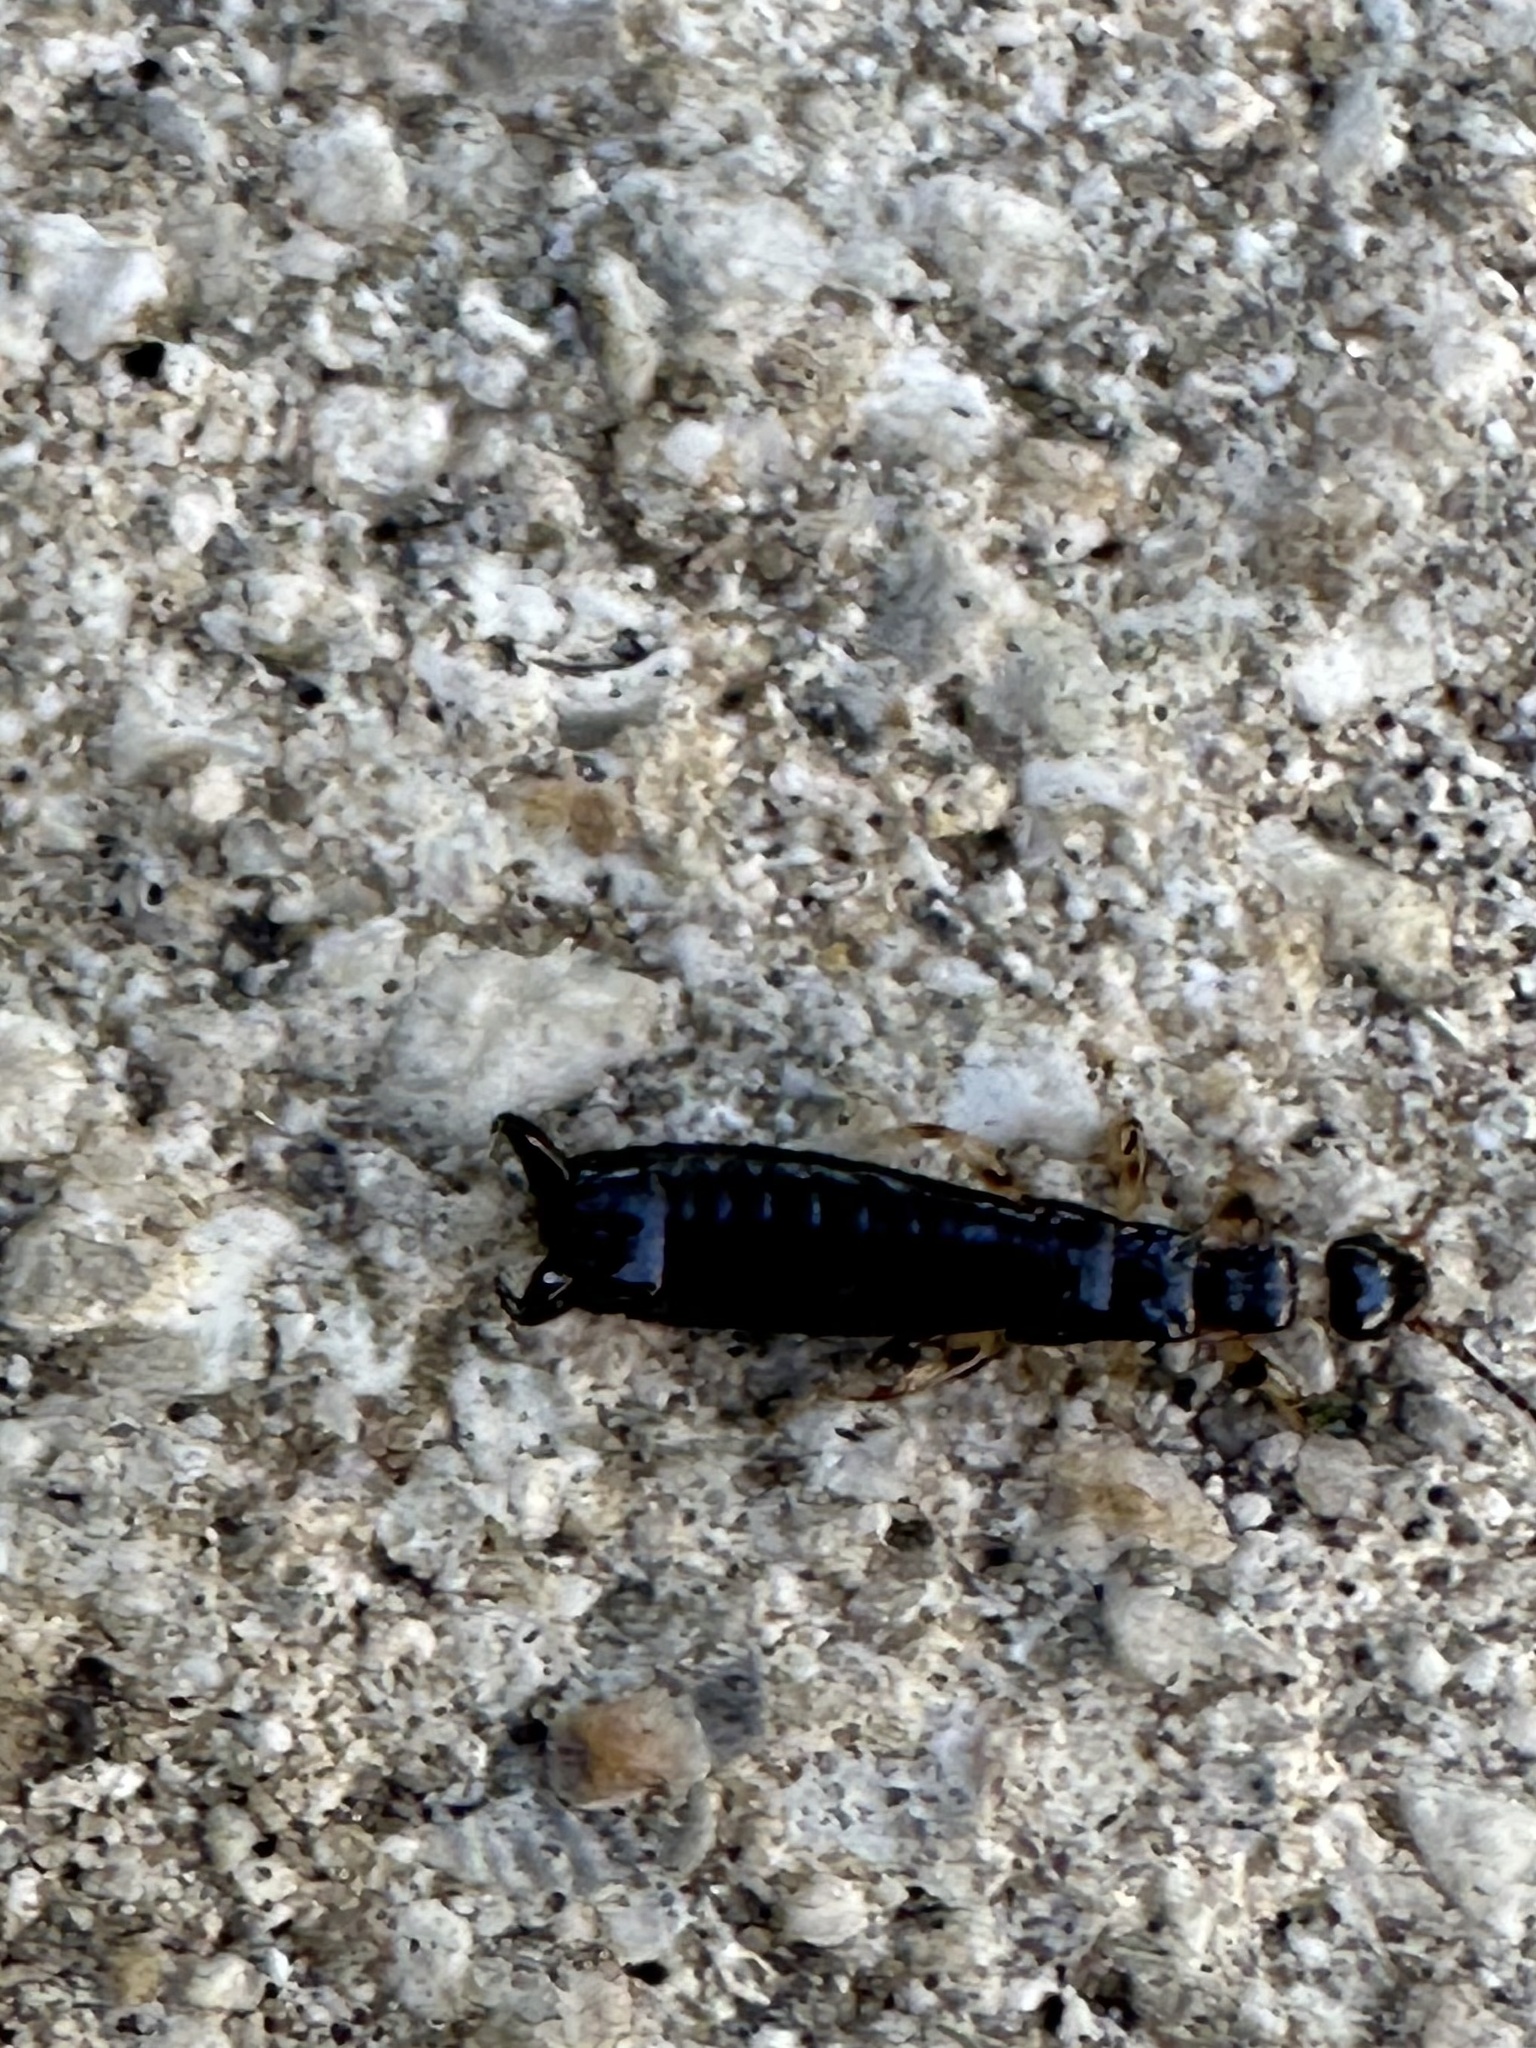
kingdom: Animalia
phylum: Arthropoda
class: Insecta
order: Dermaptera
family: Anisolabididae
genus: Euborellia
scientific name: Euborellia annulata
